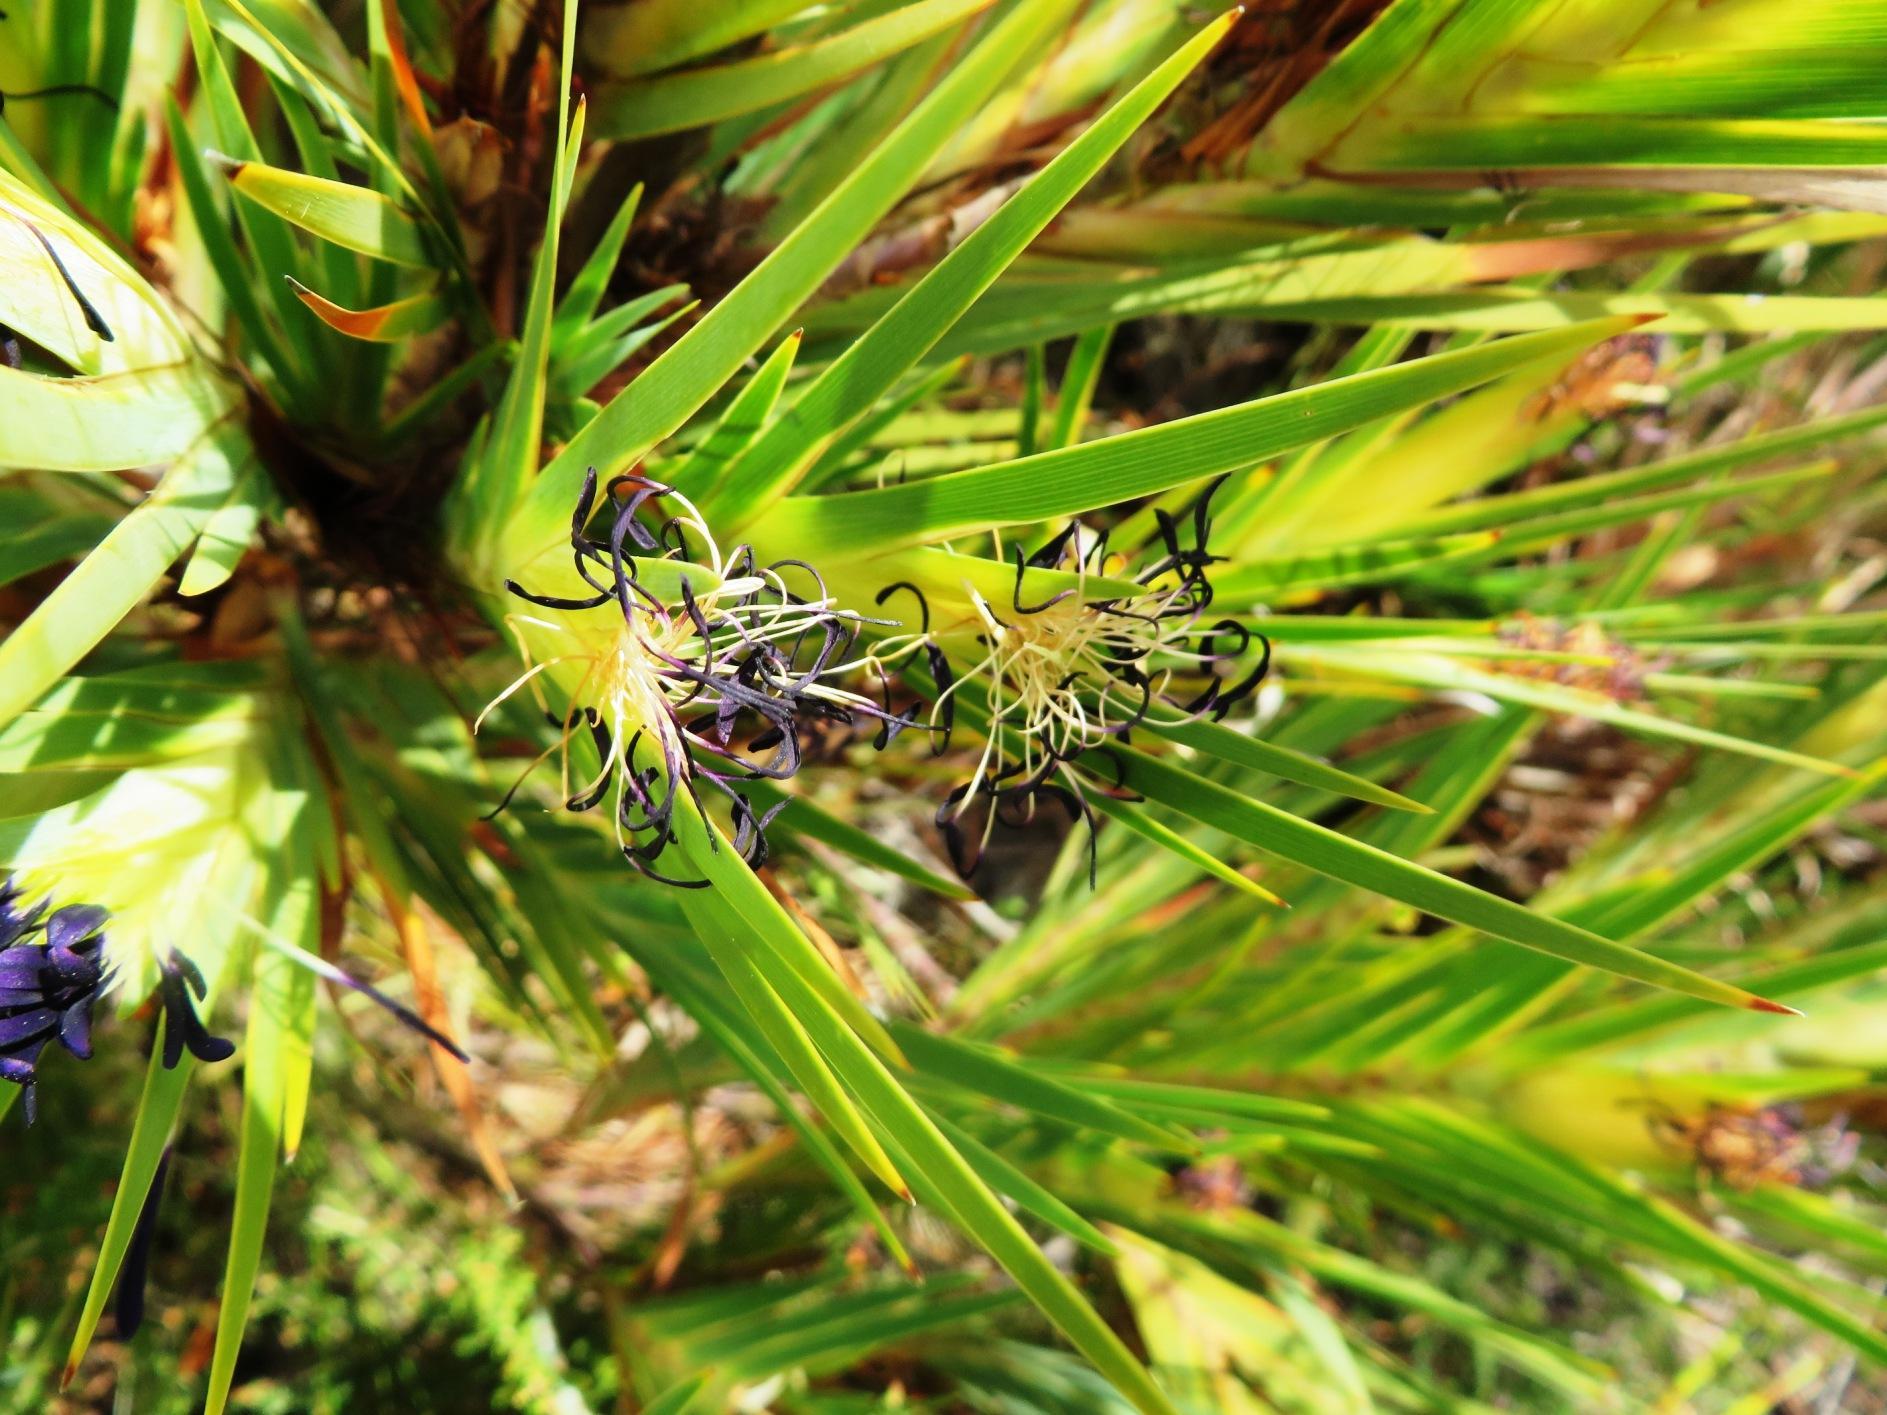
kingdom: Plantae
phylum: Tracheophyta
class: Liliopsida
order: Asparagales
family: Iridaceae
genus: Klattia
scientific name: Klattia partita
